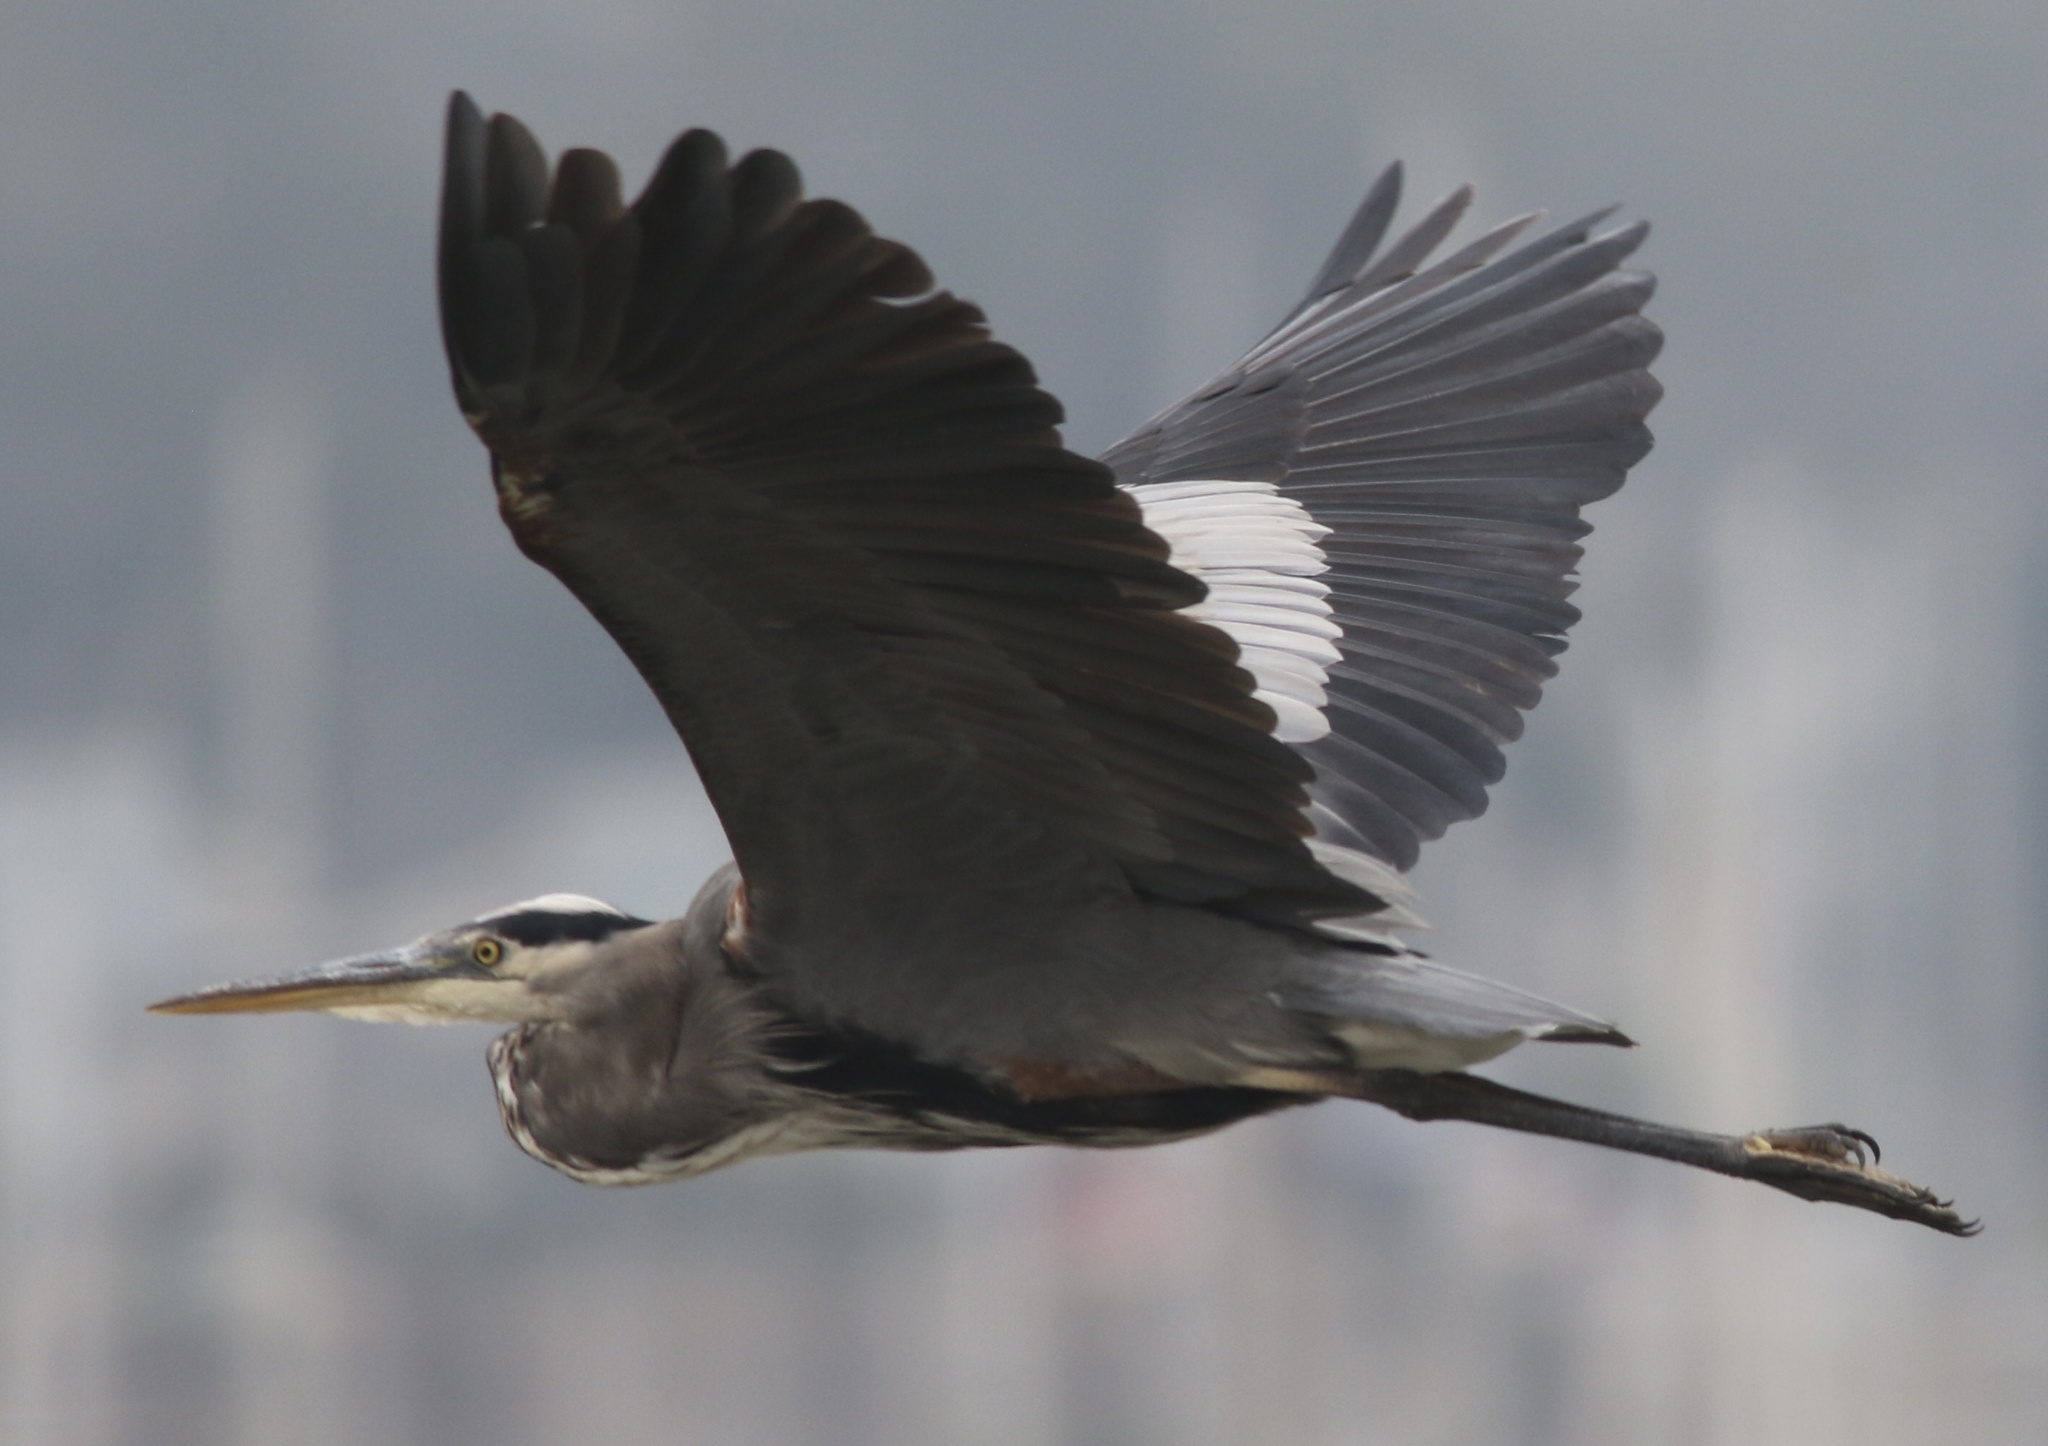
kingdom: Animalia
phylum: Chordata
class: Aves
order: Pelecaniformes
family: Ardeidae
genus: Ardea
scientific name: Ardea herodias
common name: Great blue heron
